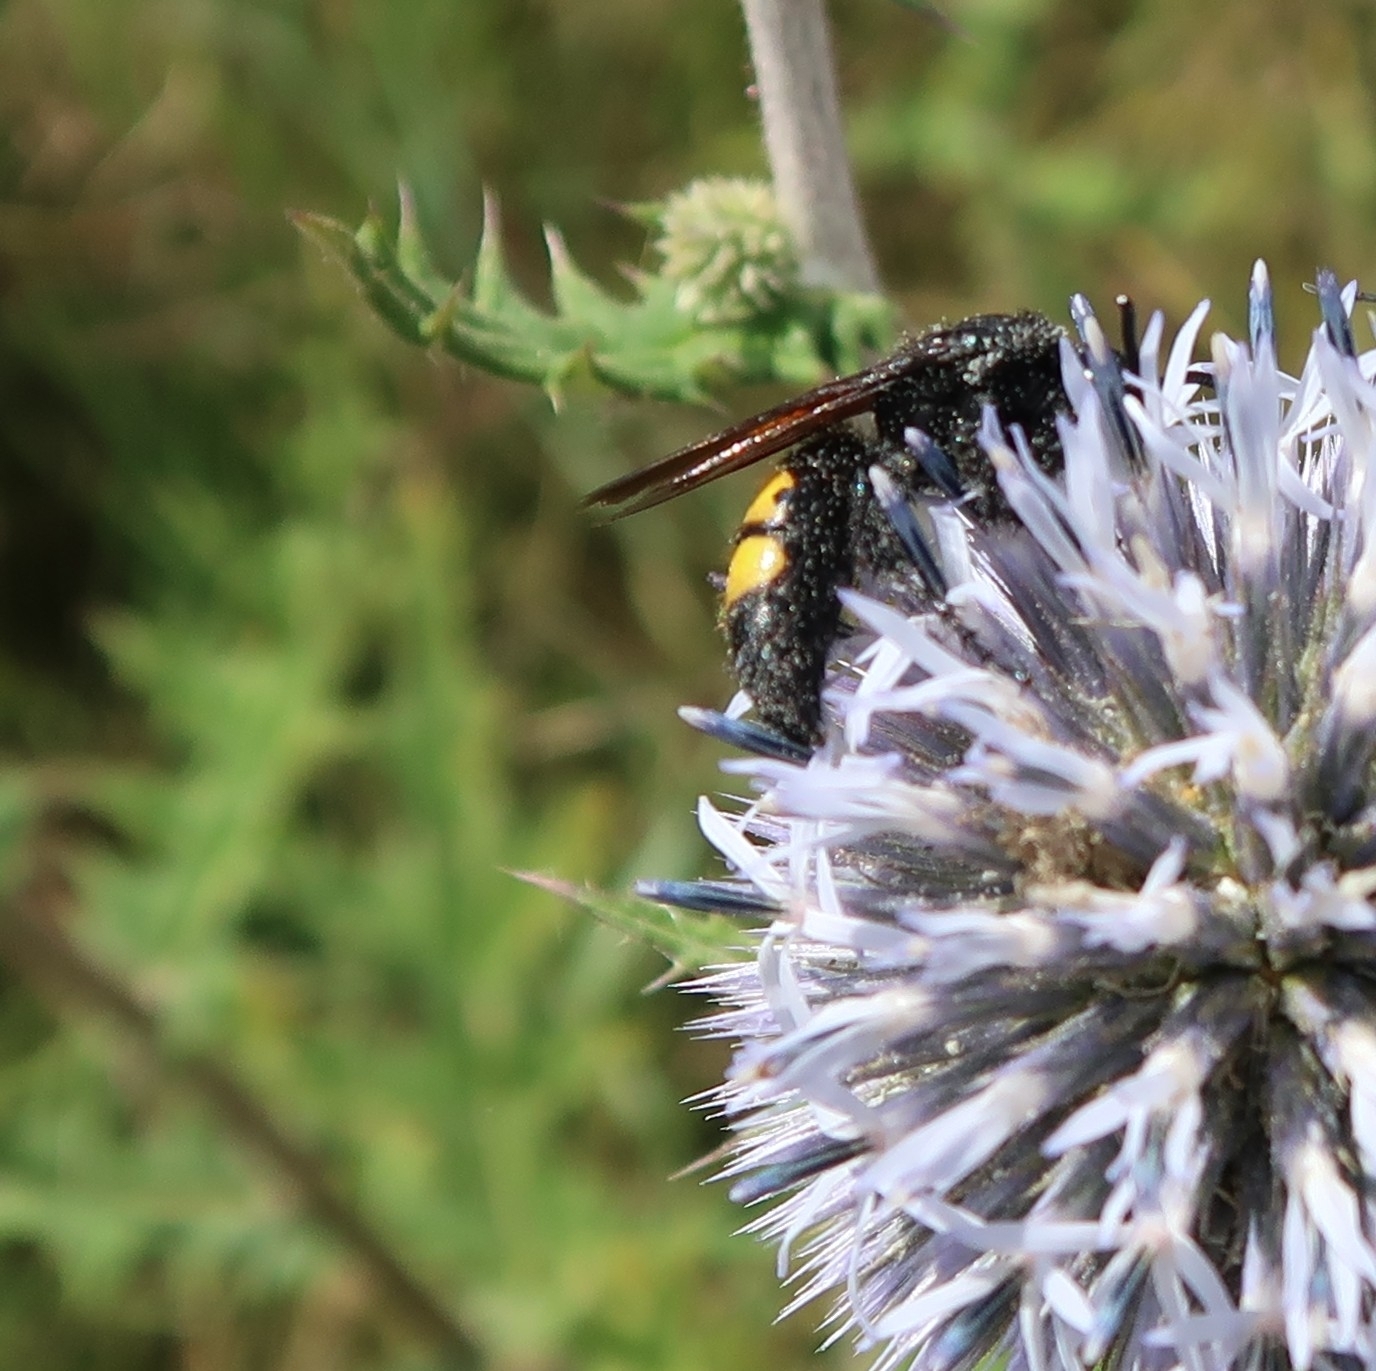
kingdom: Animalia
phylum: Arthropoda
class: Insecta
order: Hymenoptera
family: Scoliidae
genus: Scolia
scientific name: Scolia hirta
